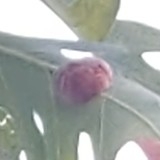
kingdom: Animalia
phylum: Arthropoda
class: Insecta
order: Hymenoptera
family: Cynipidae
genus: Andricus
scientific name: Andricus quercusflocci
